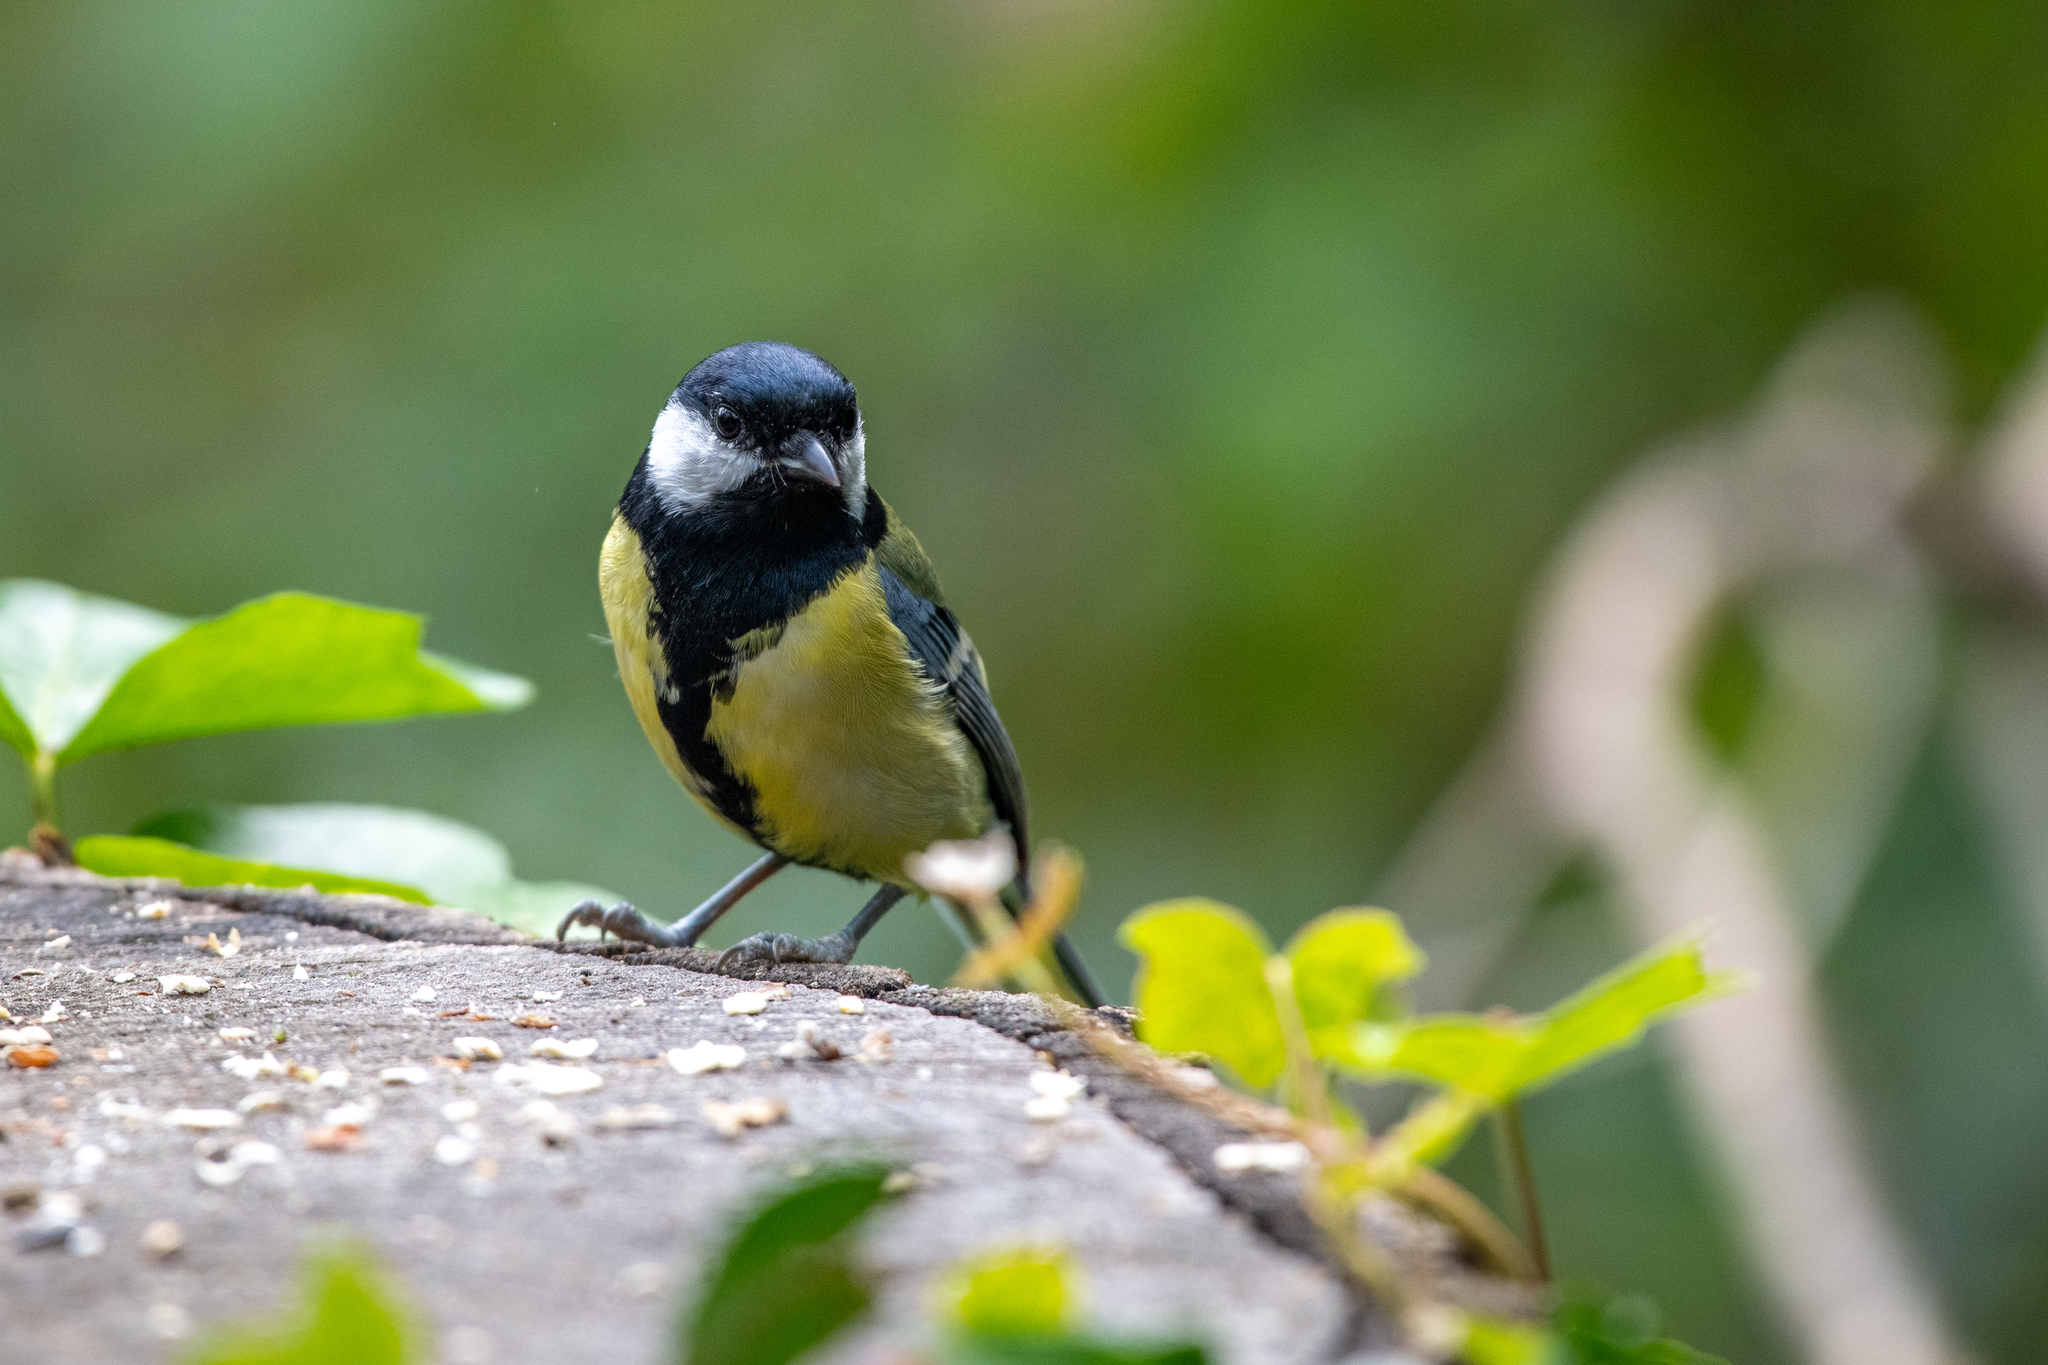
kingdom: Animalia
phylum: Chordata
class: Aves
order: Passeriformes
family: Paridae
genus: Parus
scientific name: Parus major
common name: Great tit
